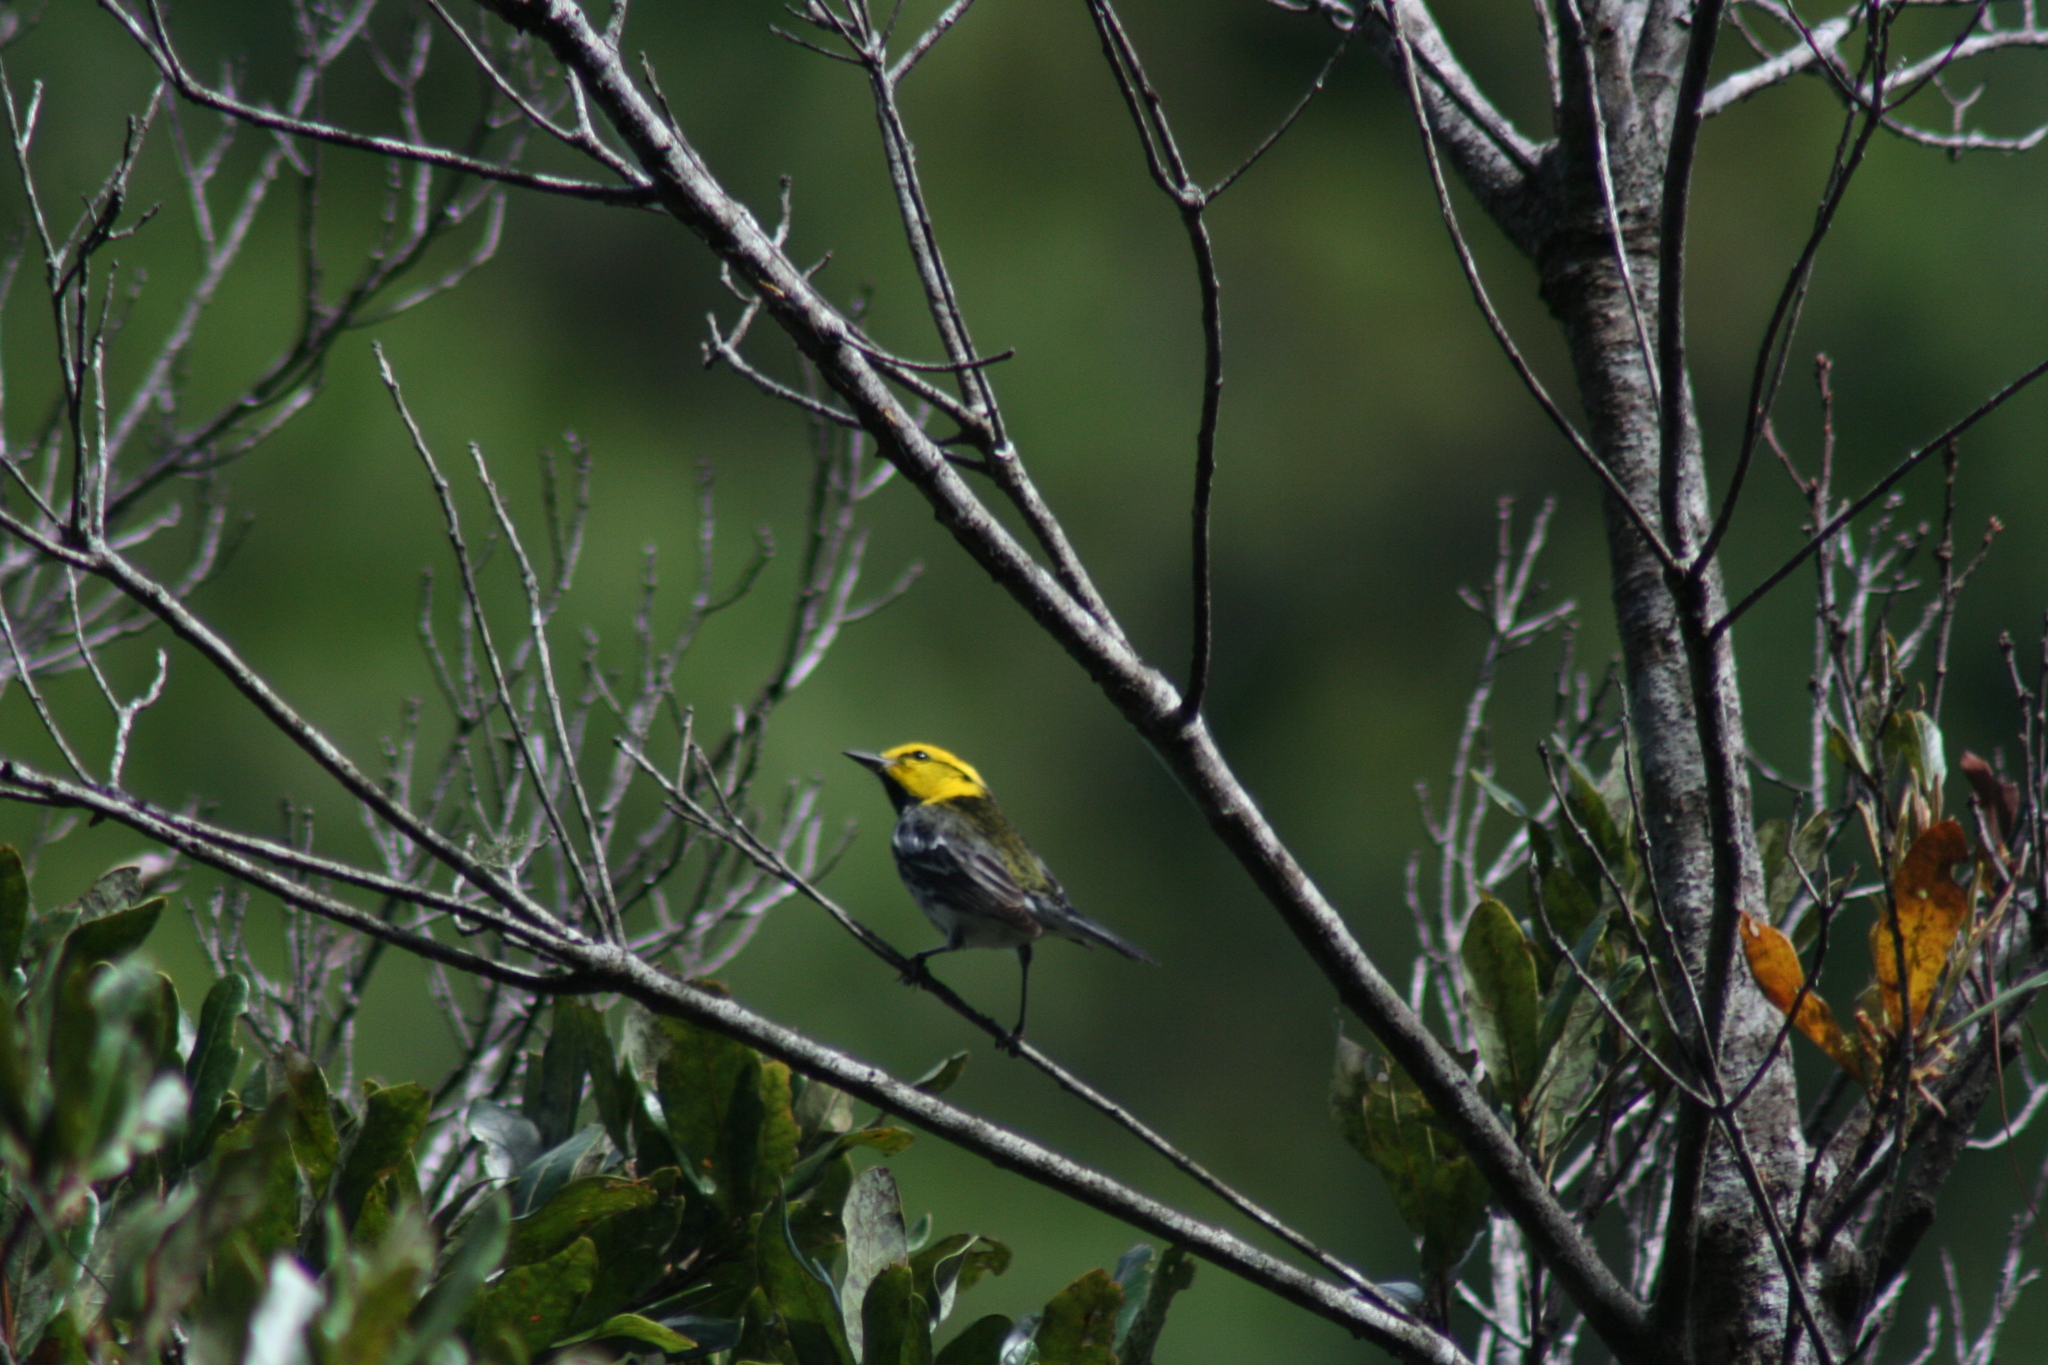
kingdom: Animalia
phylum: Chordata
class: Aves
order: Passeriformes
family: Parulidae
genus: Setophaga
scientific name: Setophaga chrysoparia
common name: Golden-cheeked warbler
